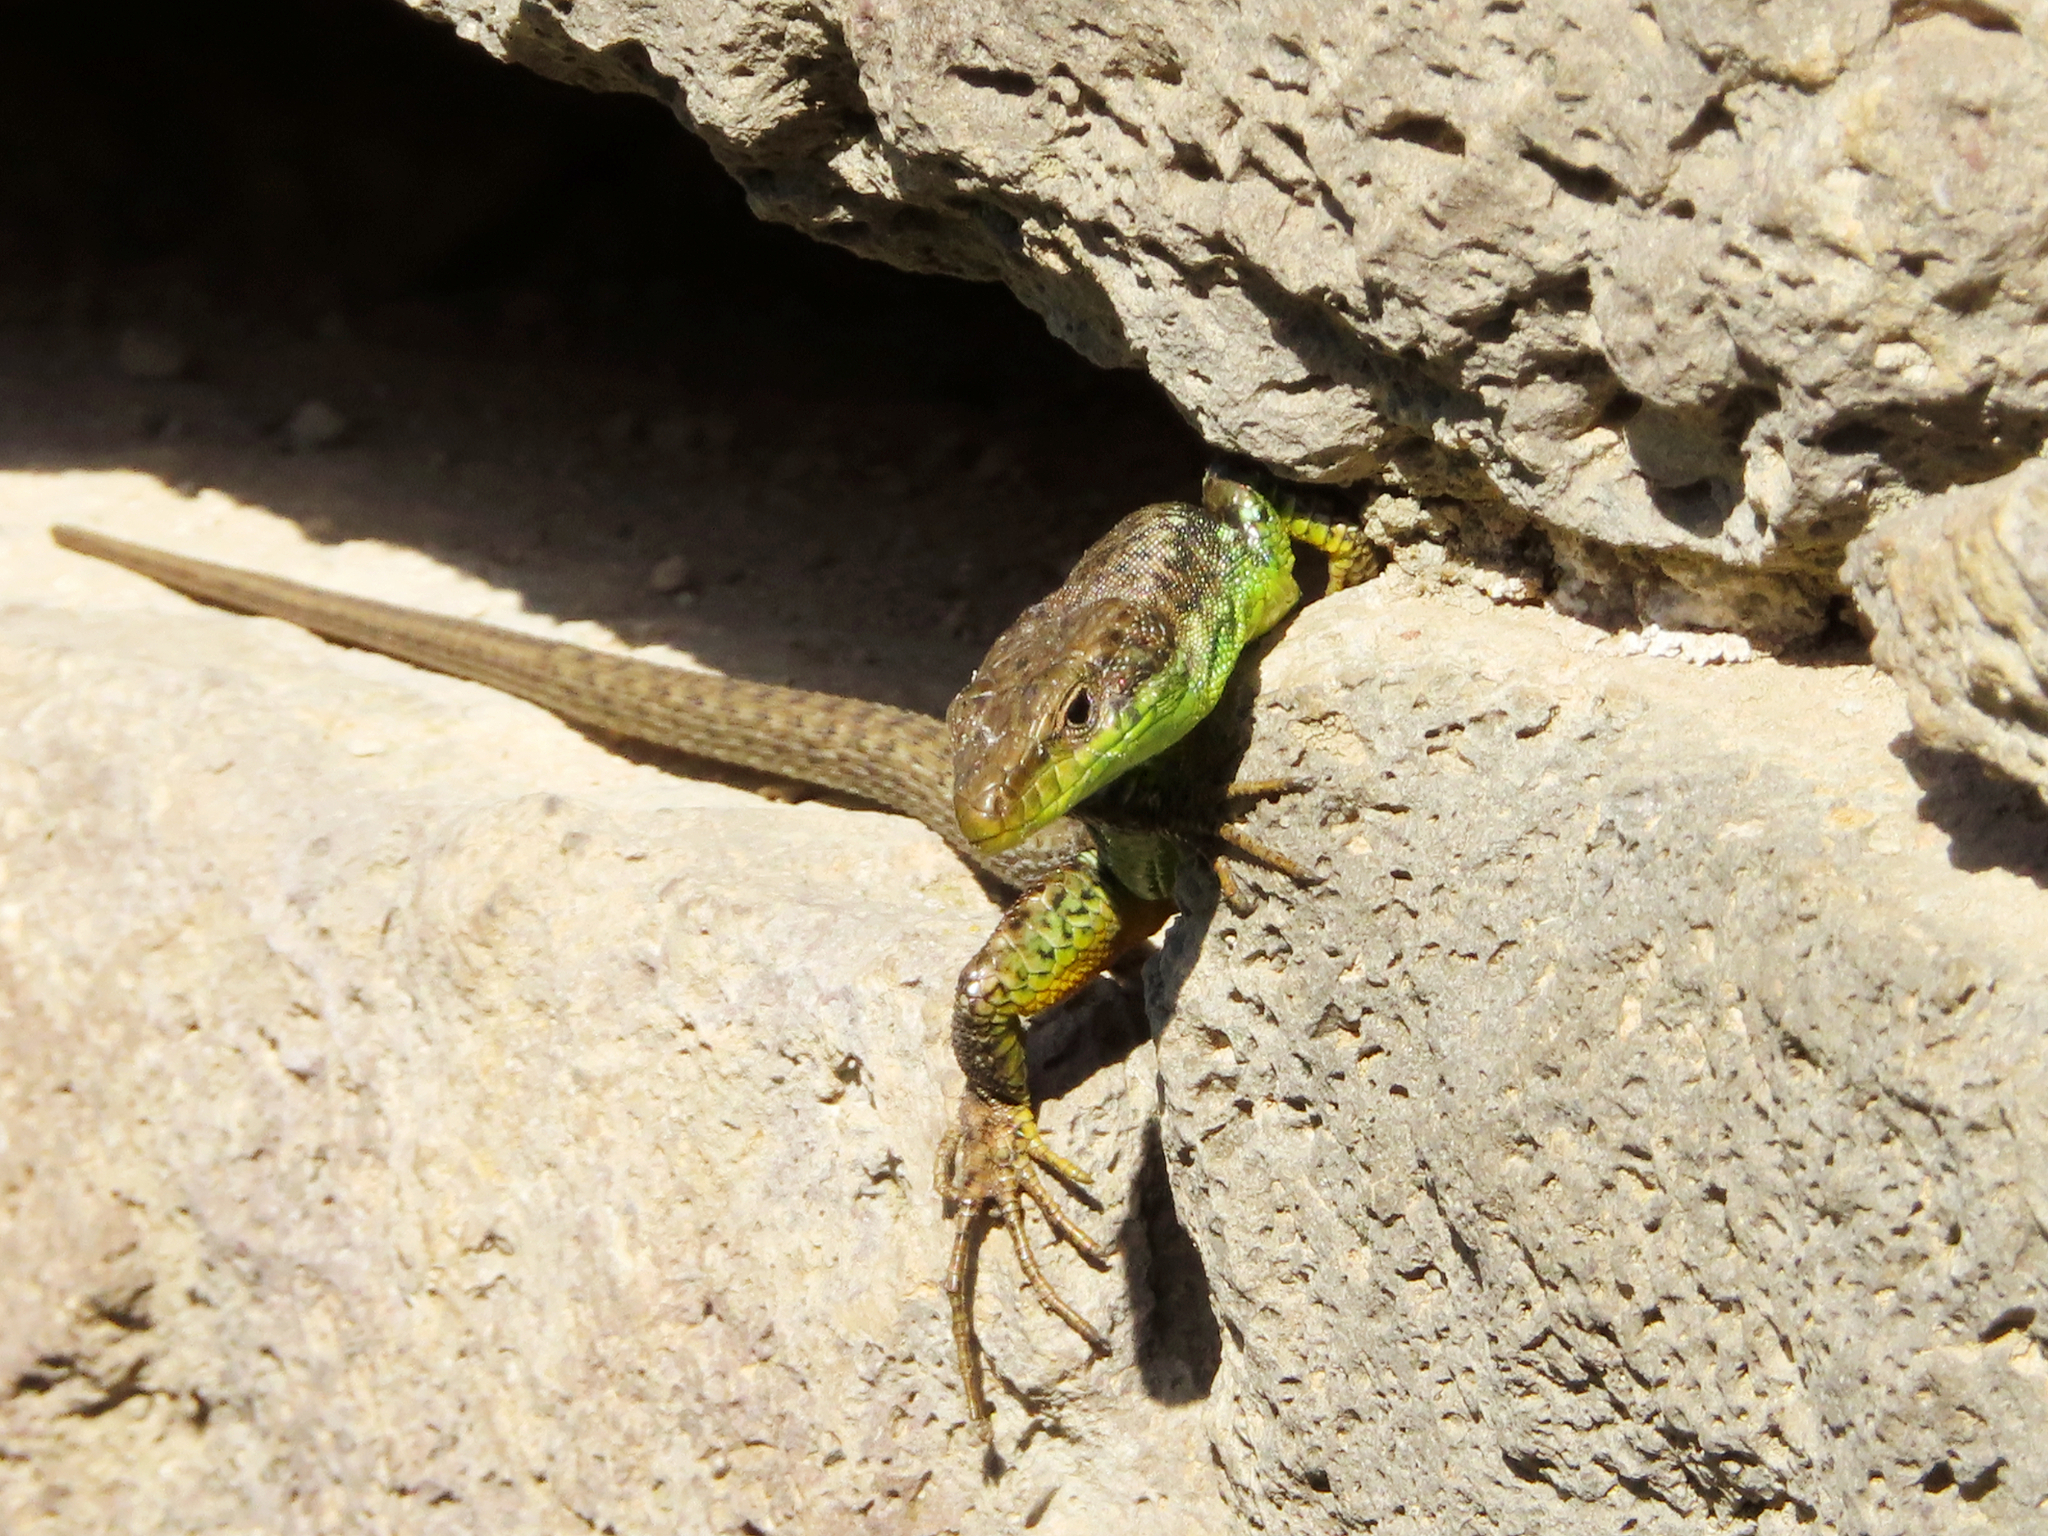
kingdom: Animalia
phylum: Chordata
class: Squamata
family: Lacertidae
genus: Darevskia
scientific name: Darevskia raddei
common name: Radde's lizard
